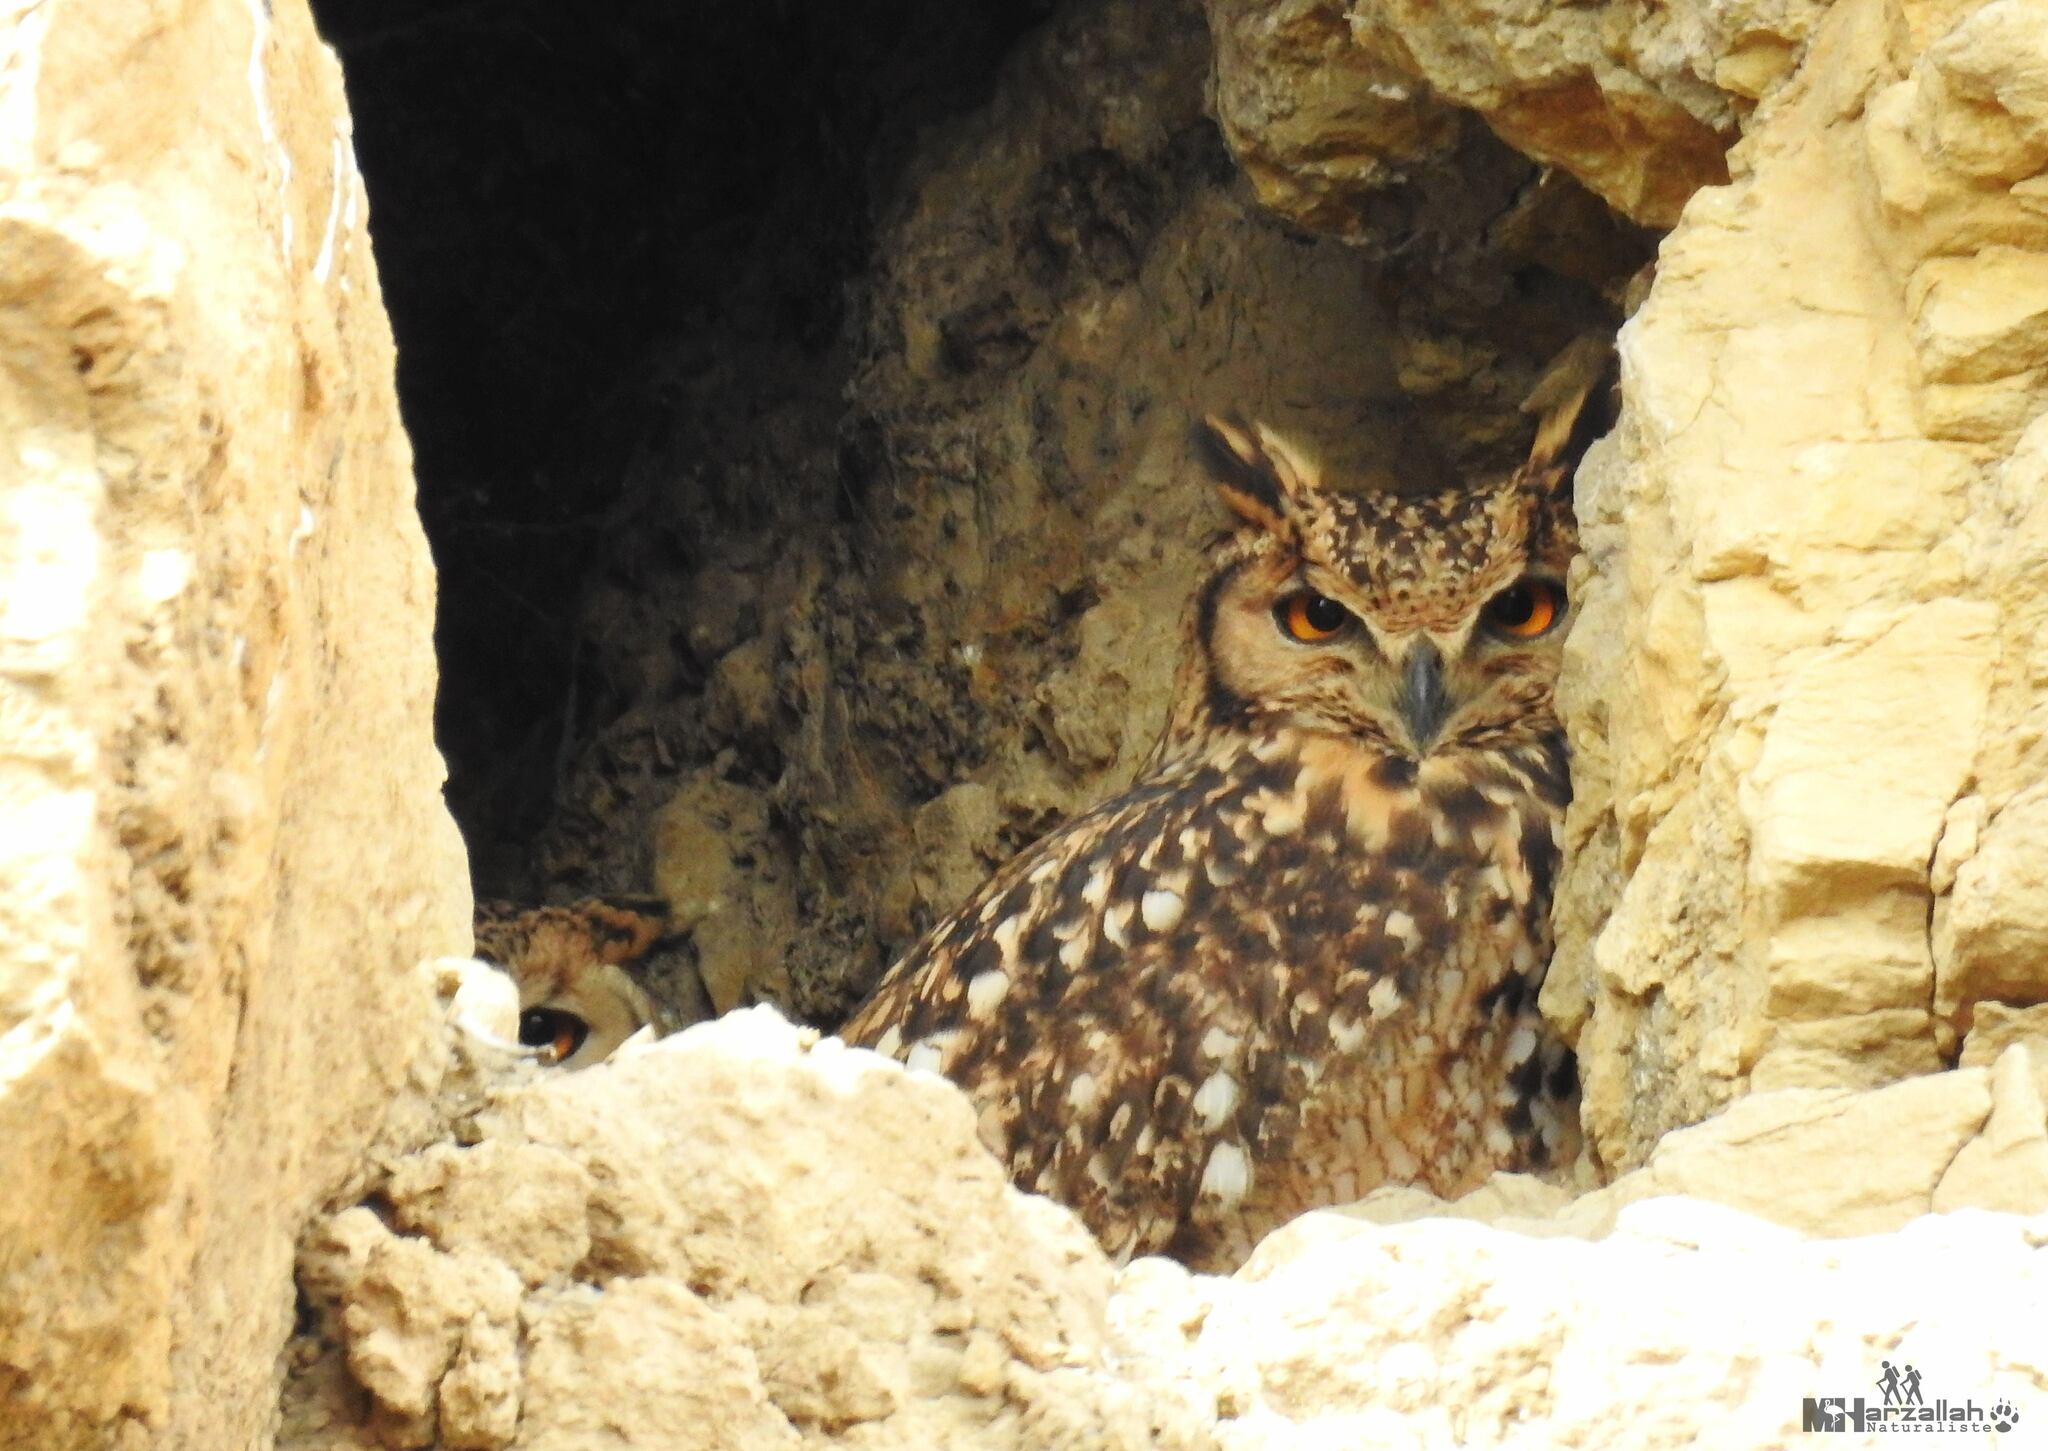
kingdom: Animalia
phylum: Chordata
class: Aves
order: Strigiformes
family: Strigidae
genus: Bubo
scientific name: Bubo ascalaphus
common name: Pharaoh eagle-owl
